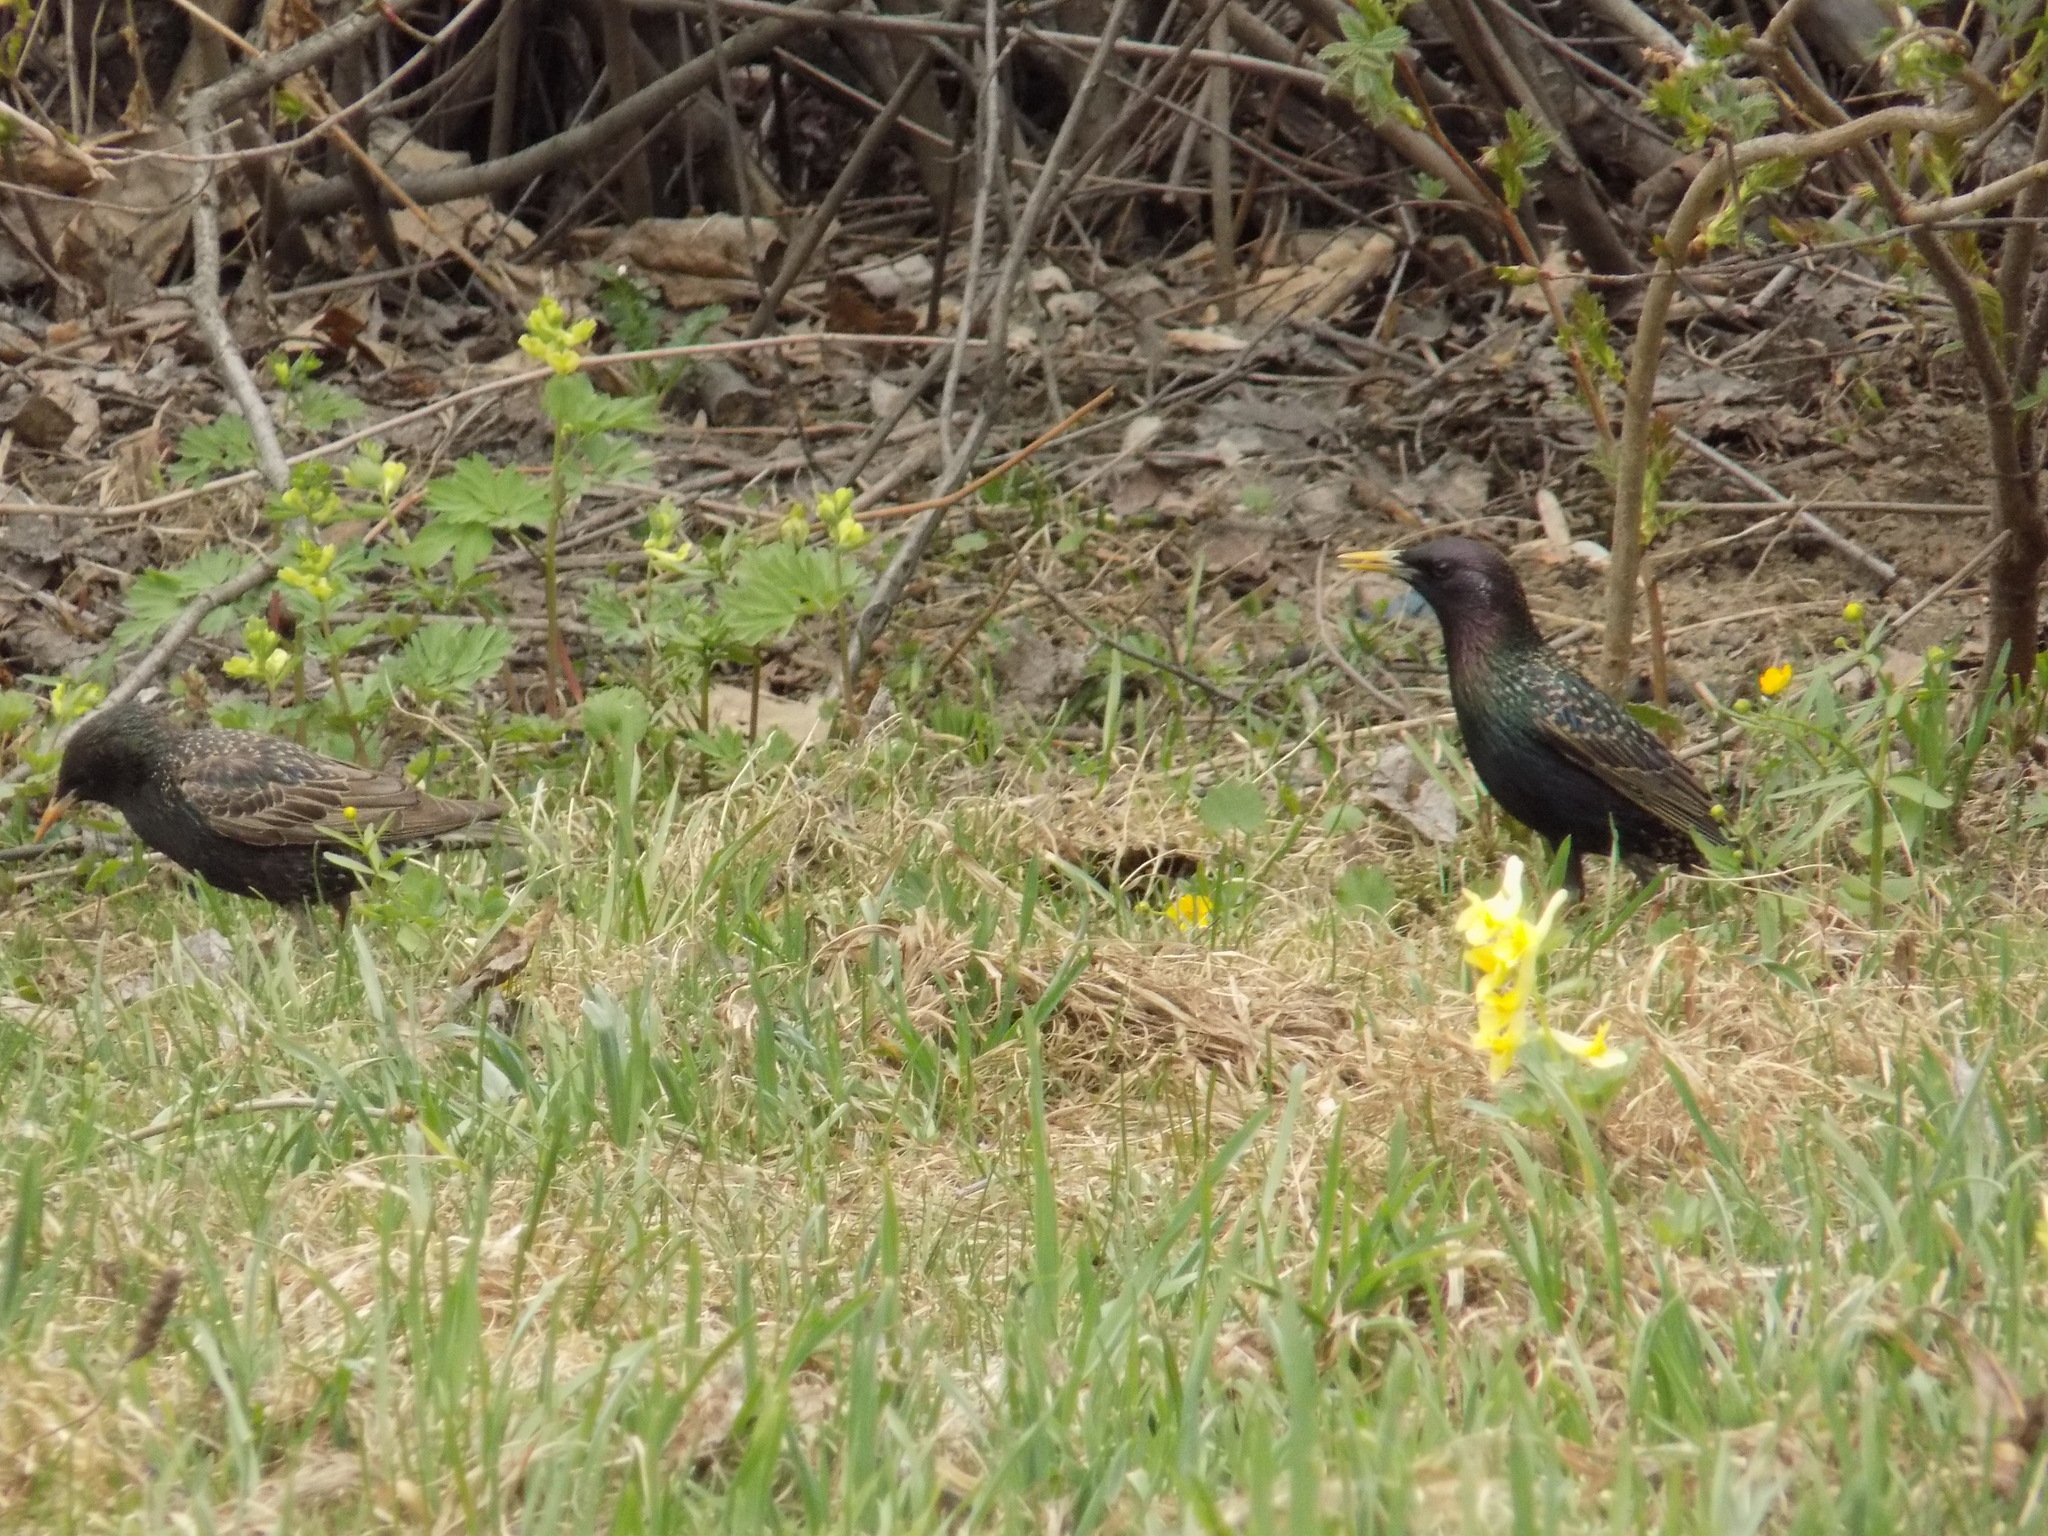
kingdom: Animalia
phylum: Chordata
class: Aves
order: Passeriformes
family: Sturnidae
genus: Sturnus
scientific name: Sturnus vulgaris
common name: Common starling
